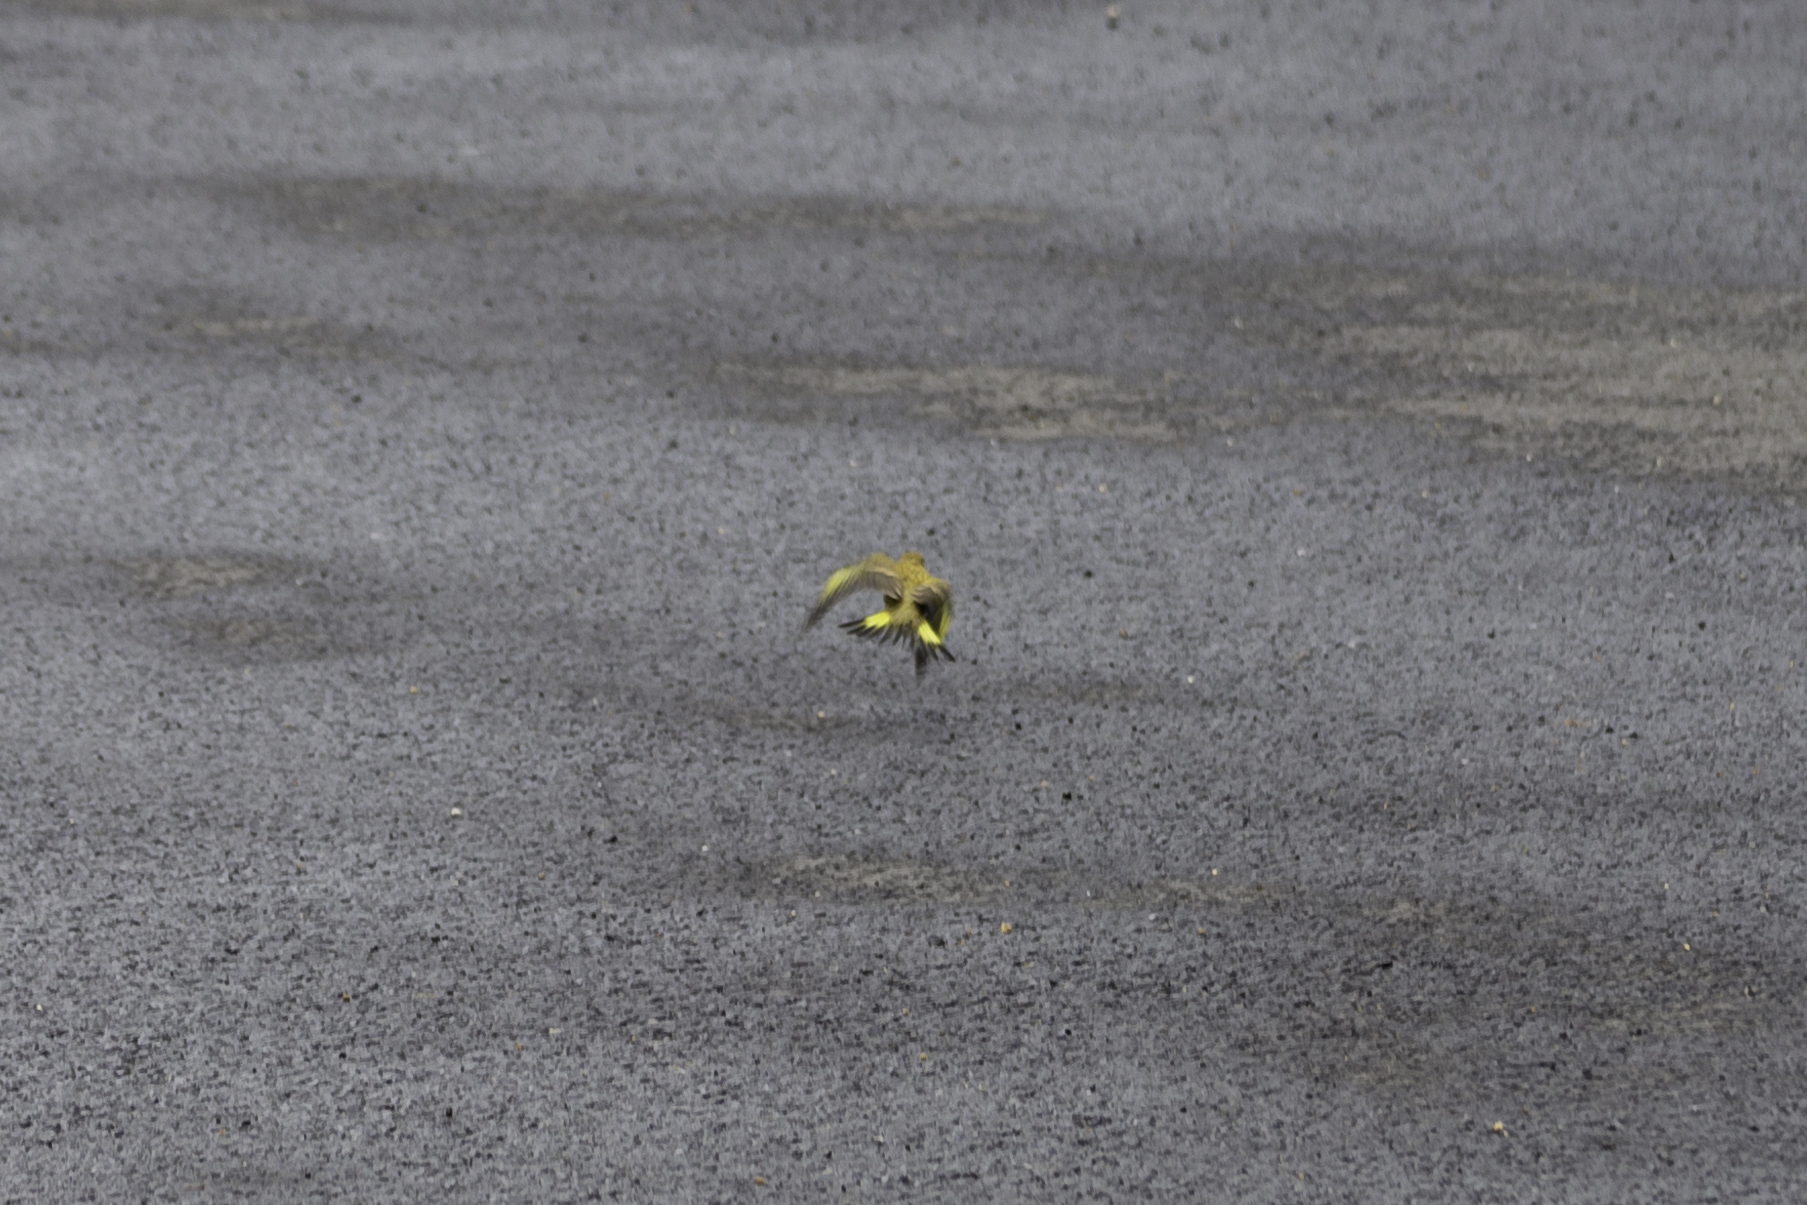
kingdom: Plantae
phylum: Tracheophyta
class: Liliopsida
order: Poales
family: Poaceae
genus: Chloris
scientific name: Chloris chloris
